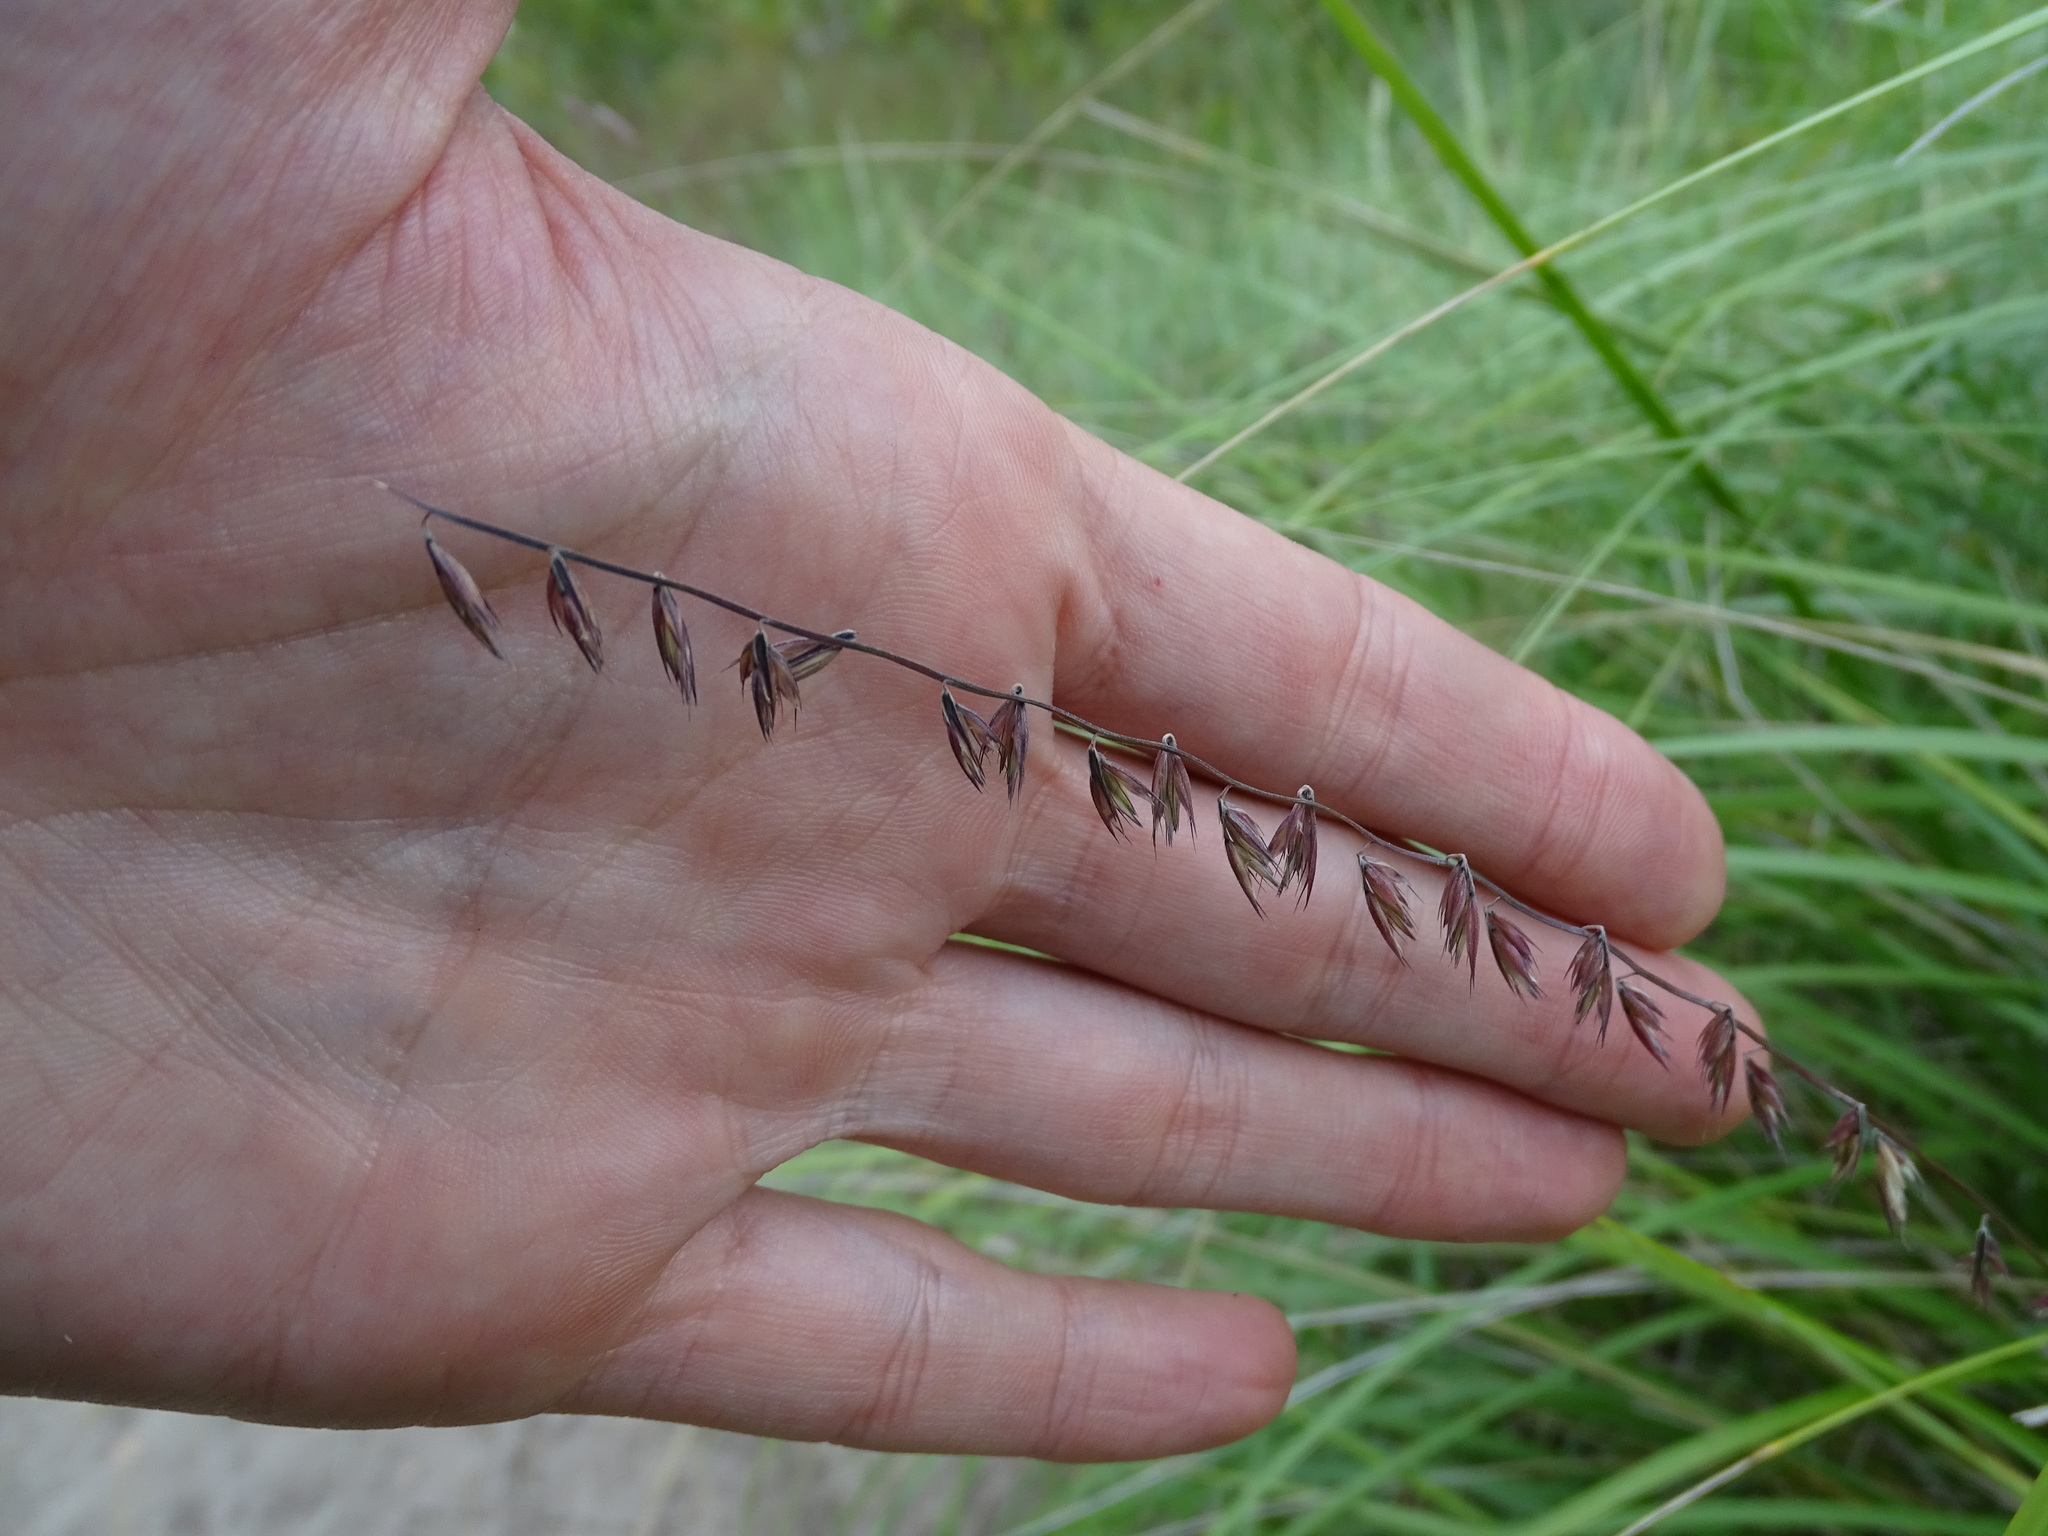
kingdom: Plantae
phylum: Tracheophyta
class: Liliopsida
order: Poales
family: Poaceae
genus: Bouteloua
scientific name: Bouteloua curtipendula
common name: Side-oats grama
